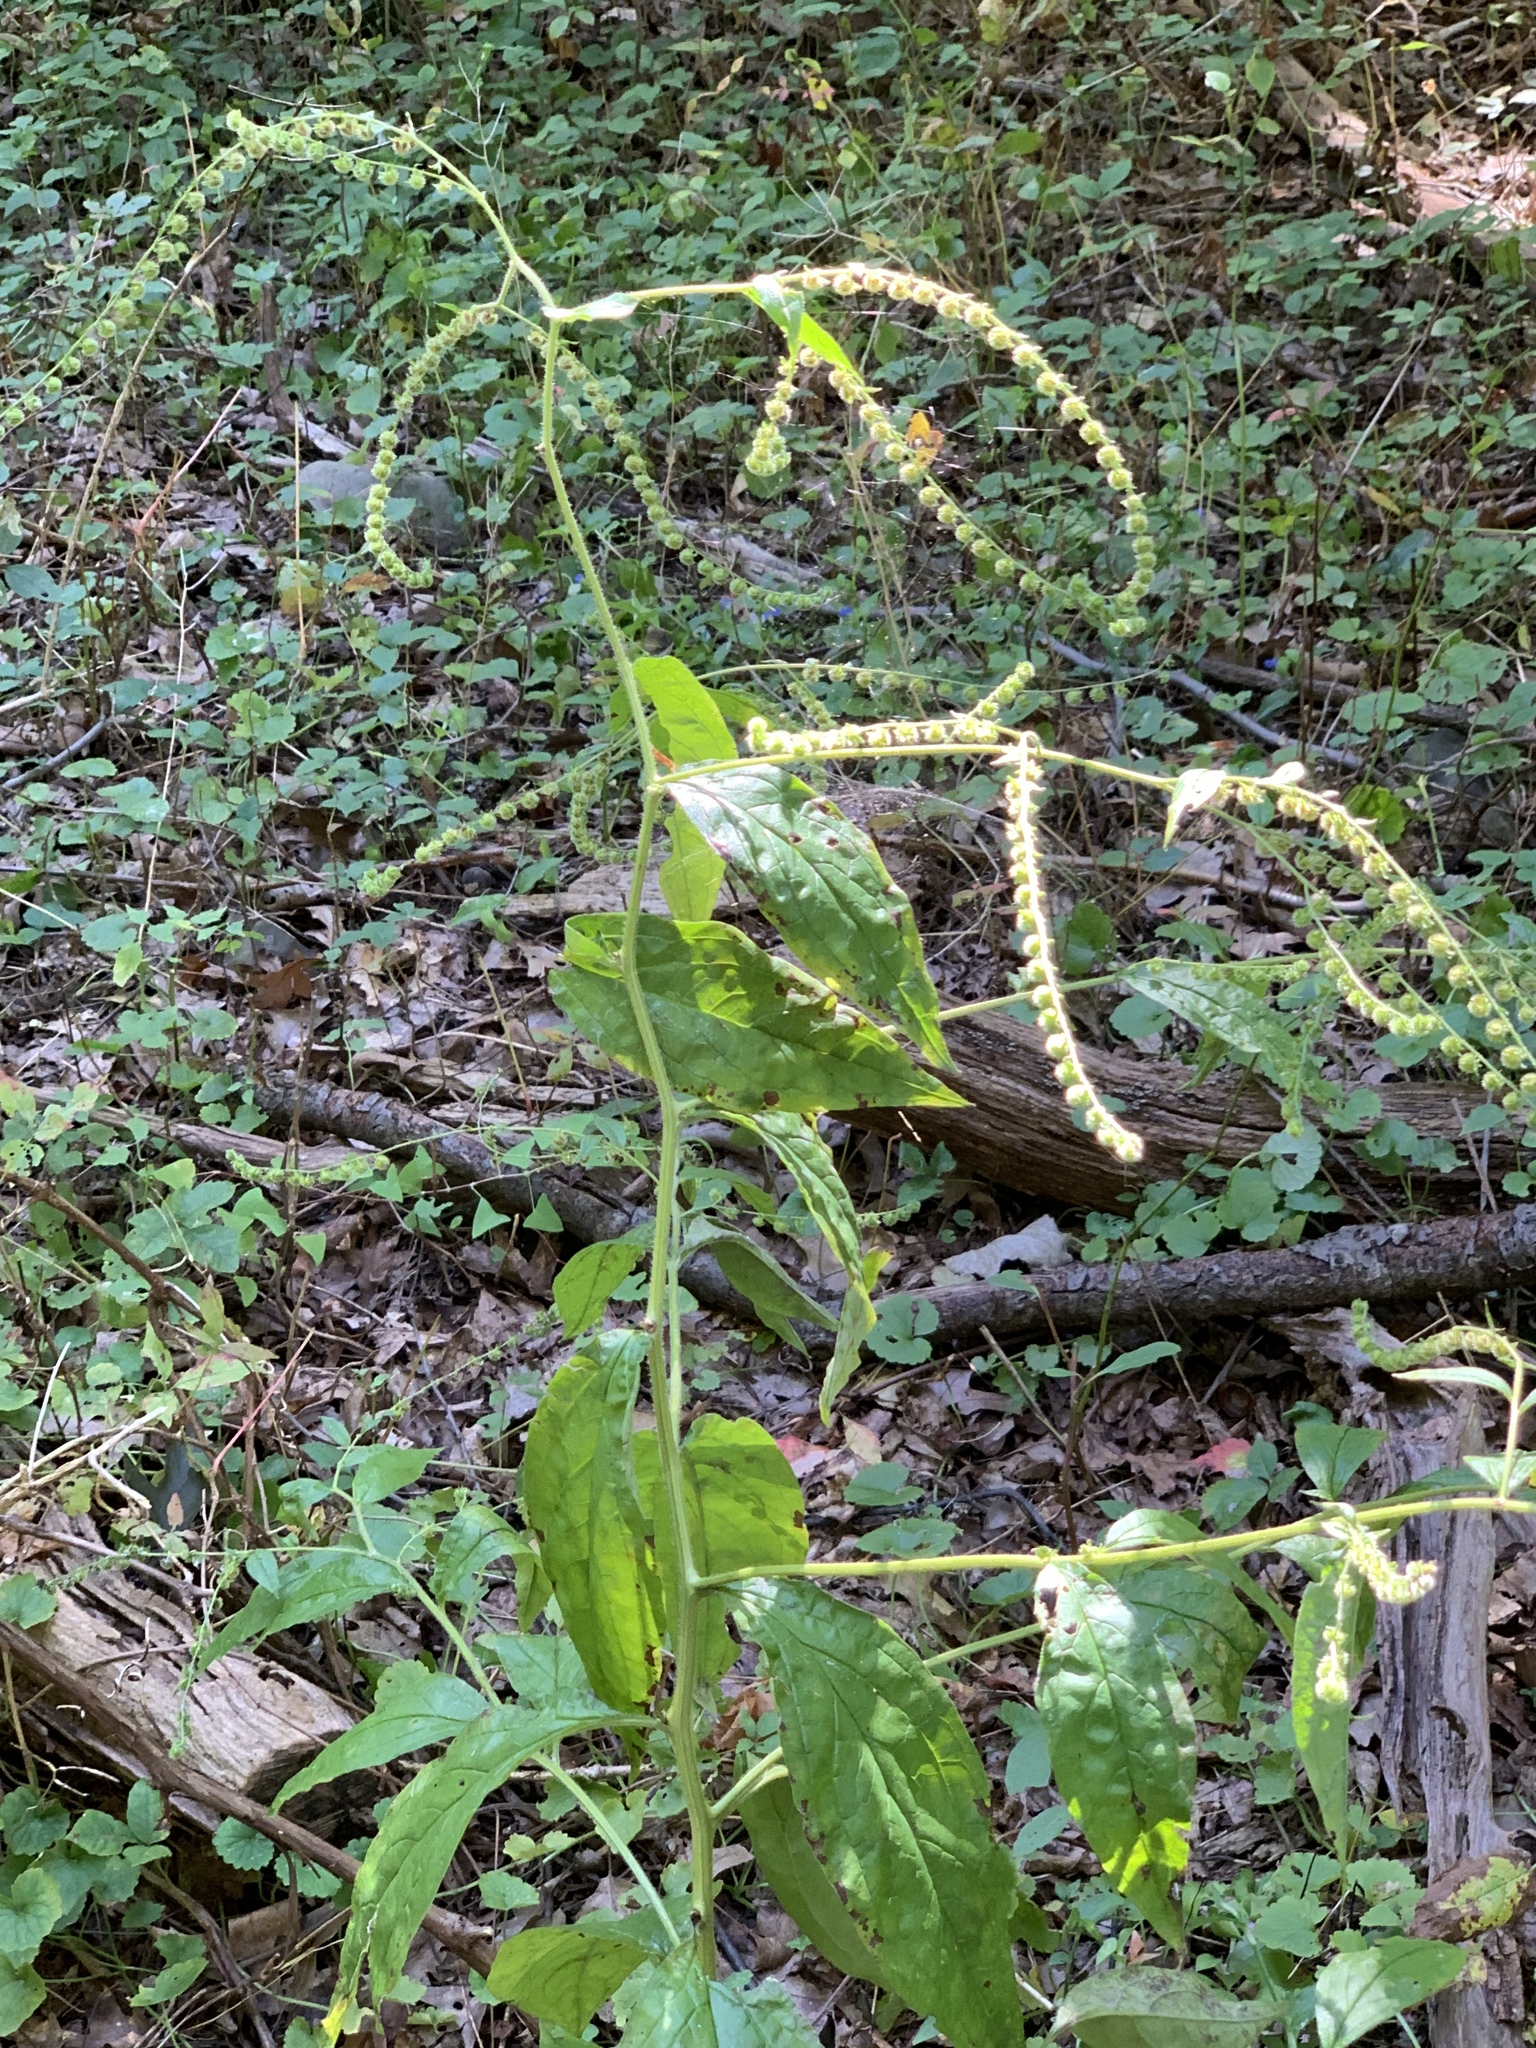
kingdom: Plantae
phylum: Tracheophyta
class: Magnoliopsida
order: Boraginales
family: Boraginaceae
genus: Hackelia
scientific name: Hackelia virginiana
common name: Beggar's-lice
